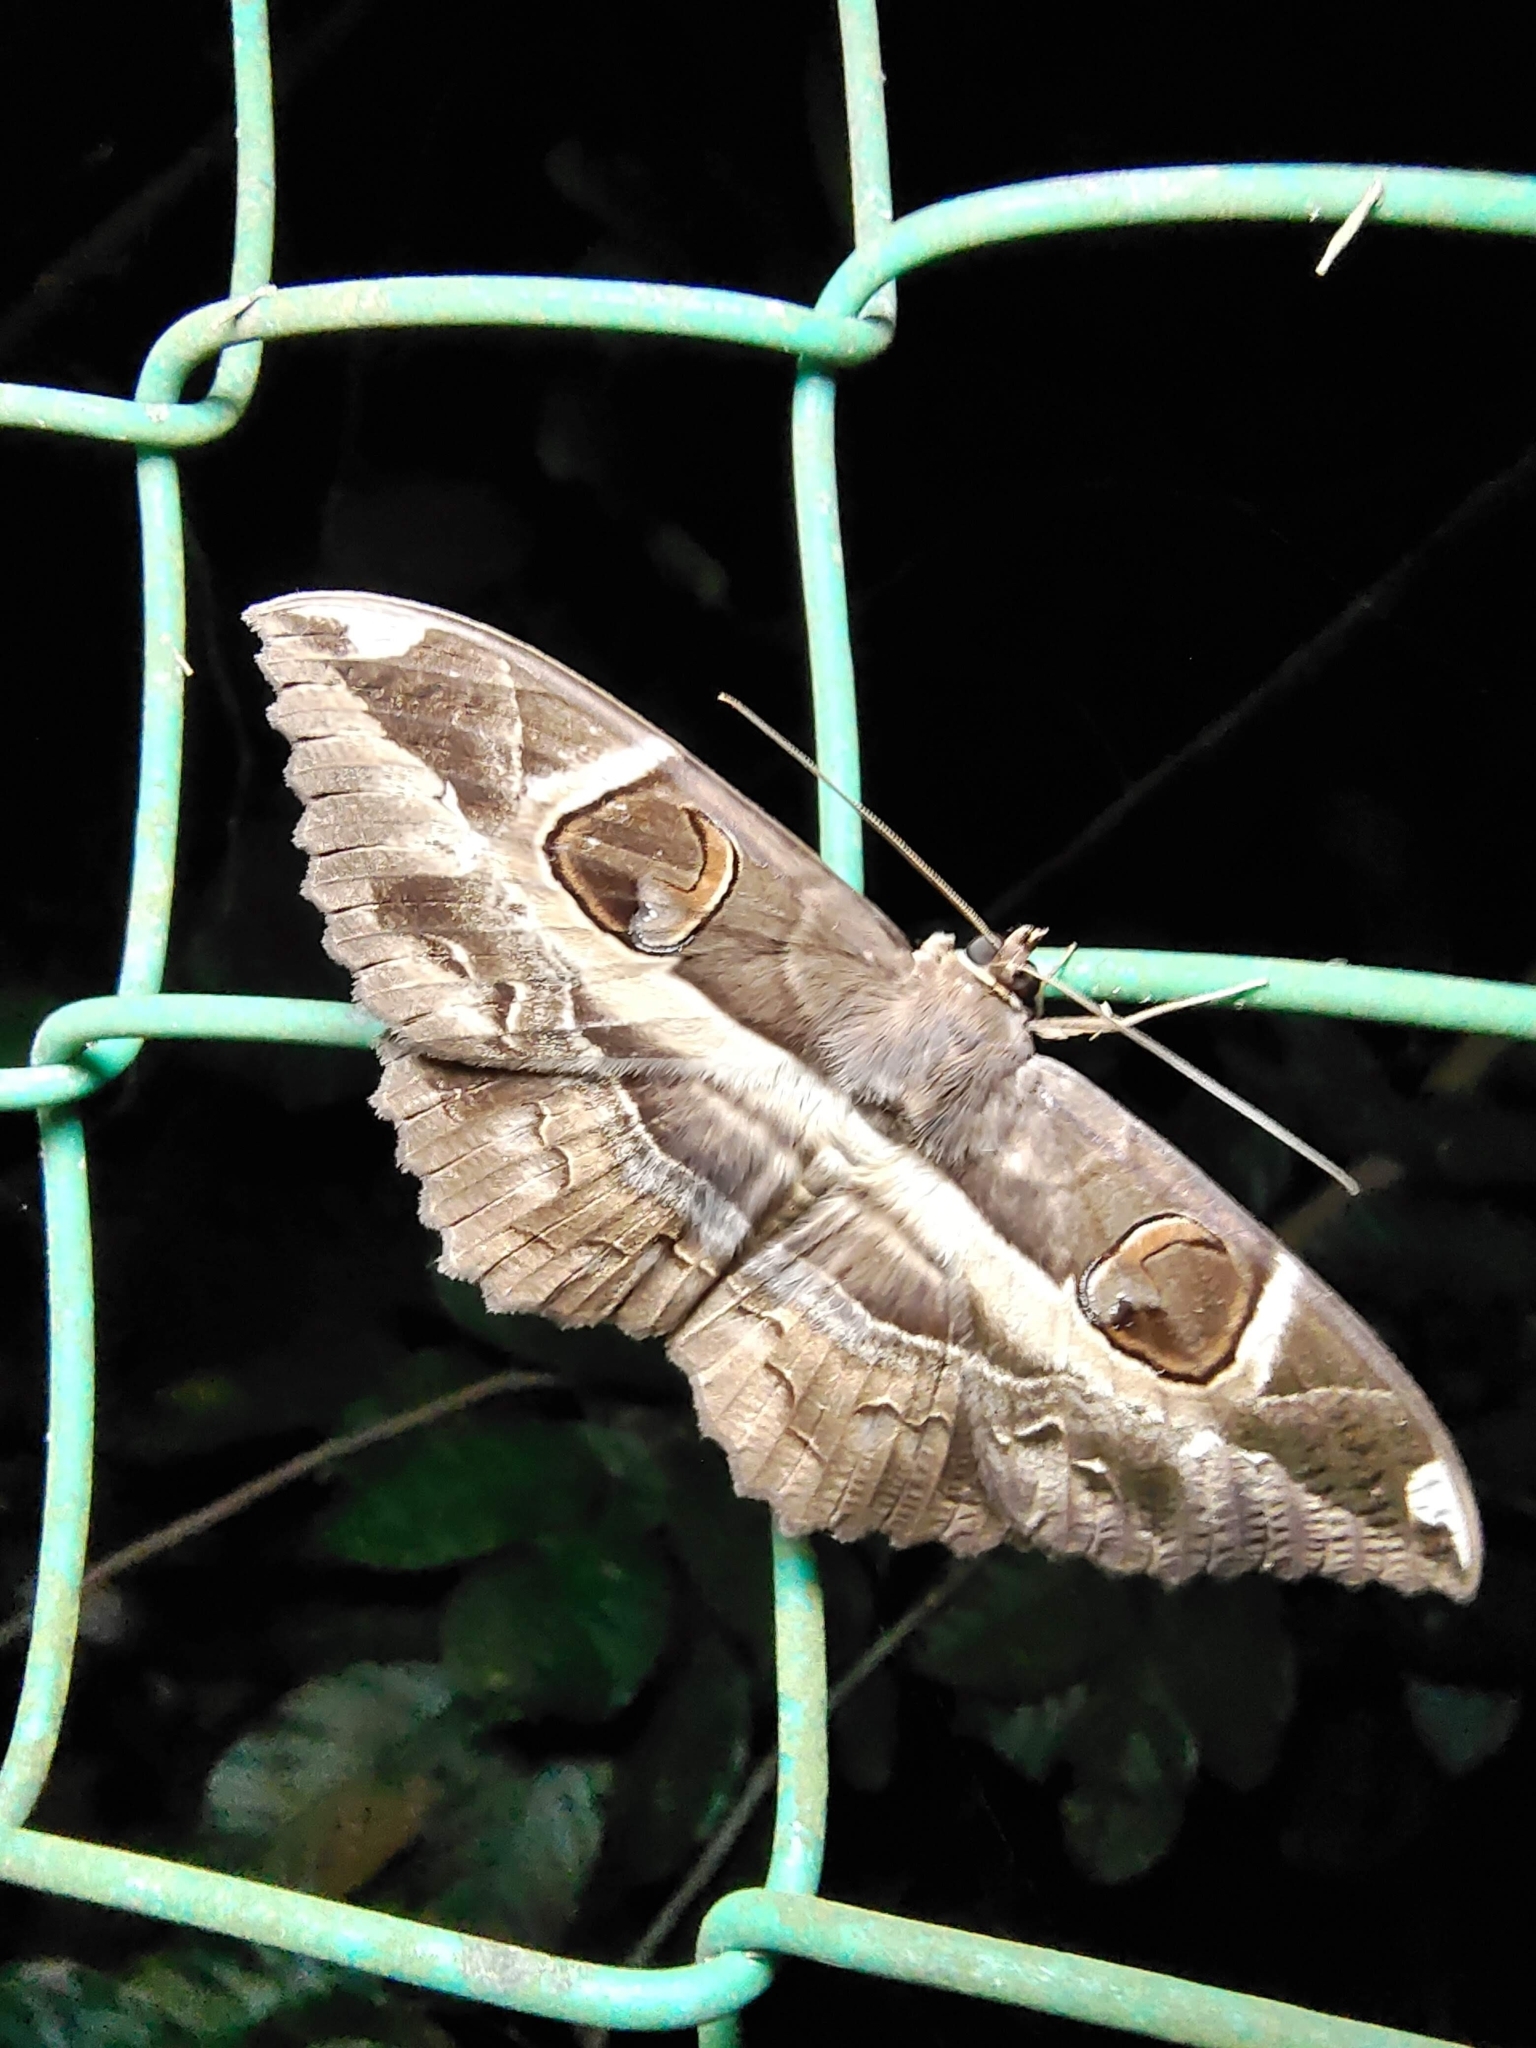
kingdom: Animalia
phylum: Arthropoda
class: Insecta
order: Lepidoptera
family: Erebidae
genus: Erebus
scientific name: Erebus ephesperis
